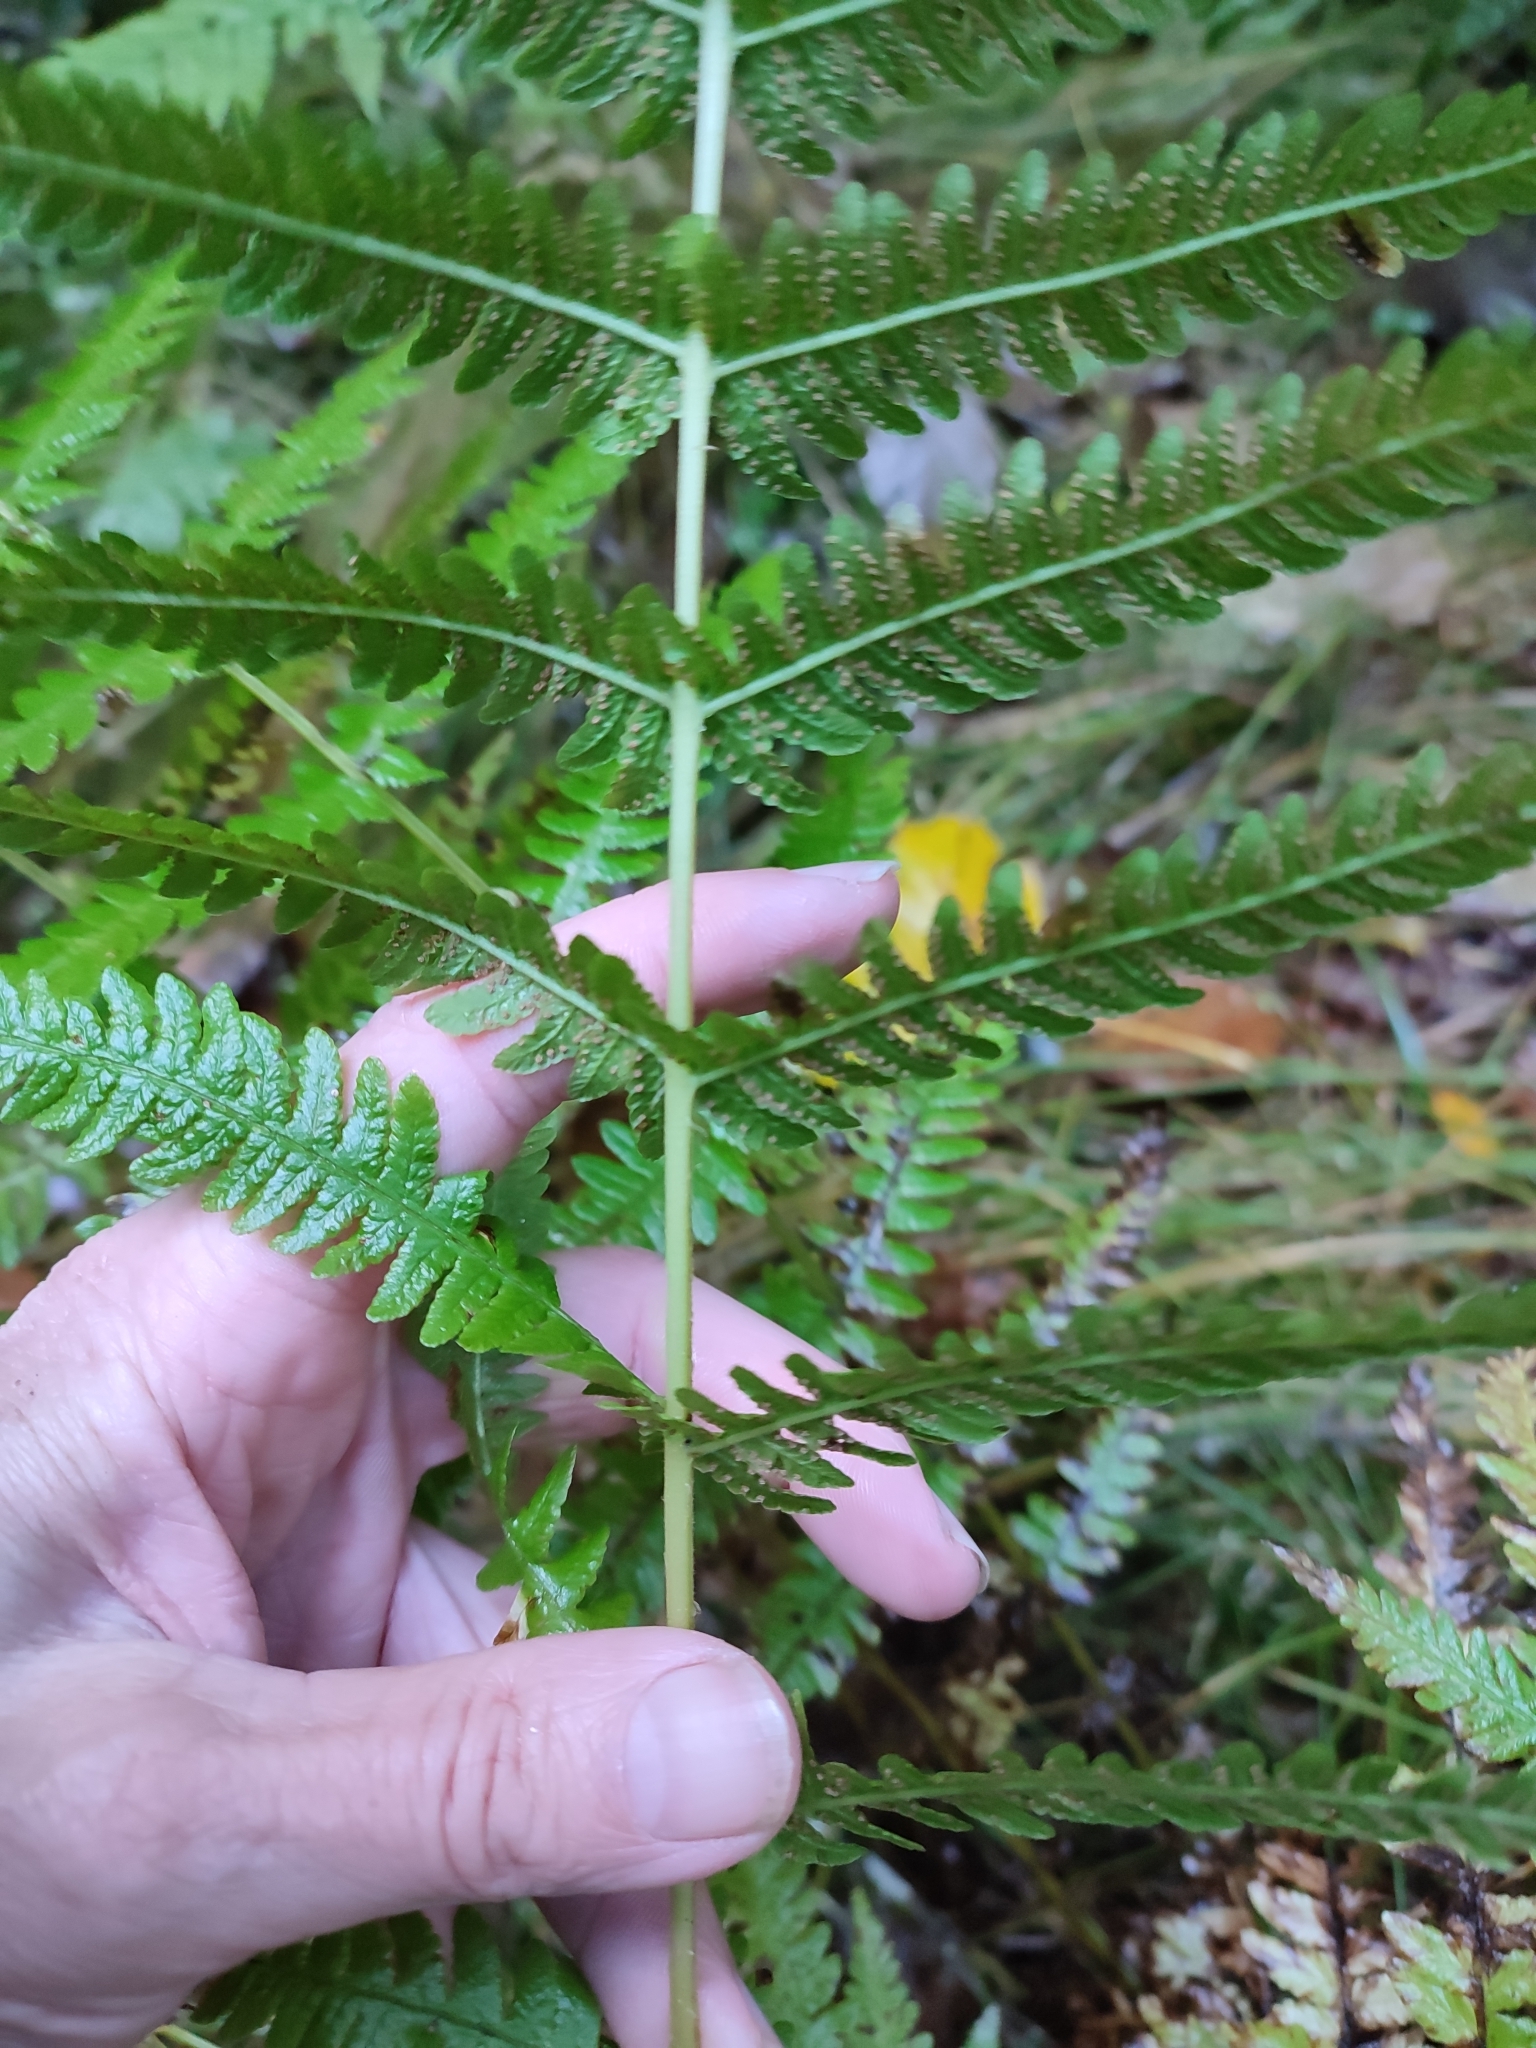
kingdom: Plantae
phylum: Tracheophyta
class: Polypodiopsida
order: Polypodiales
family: Thelypteridaceae
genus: Oreopteris
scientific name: Oreopteris limbosperma
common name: Lemon-scented fern
